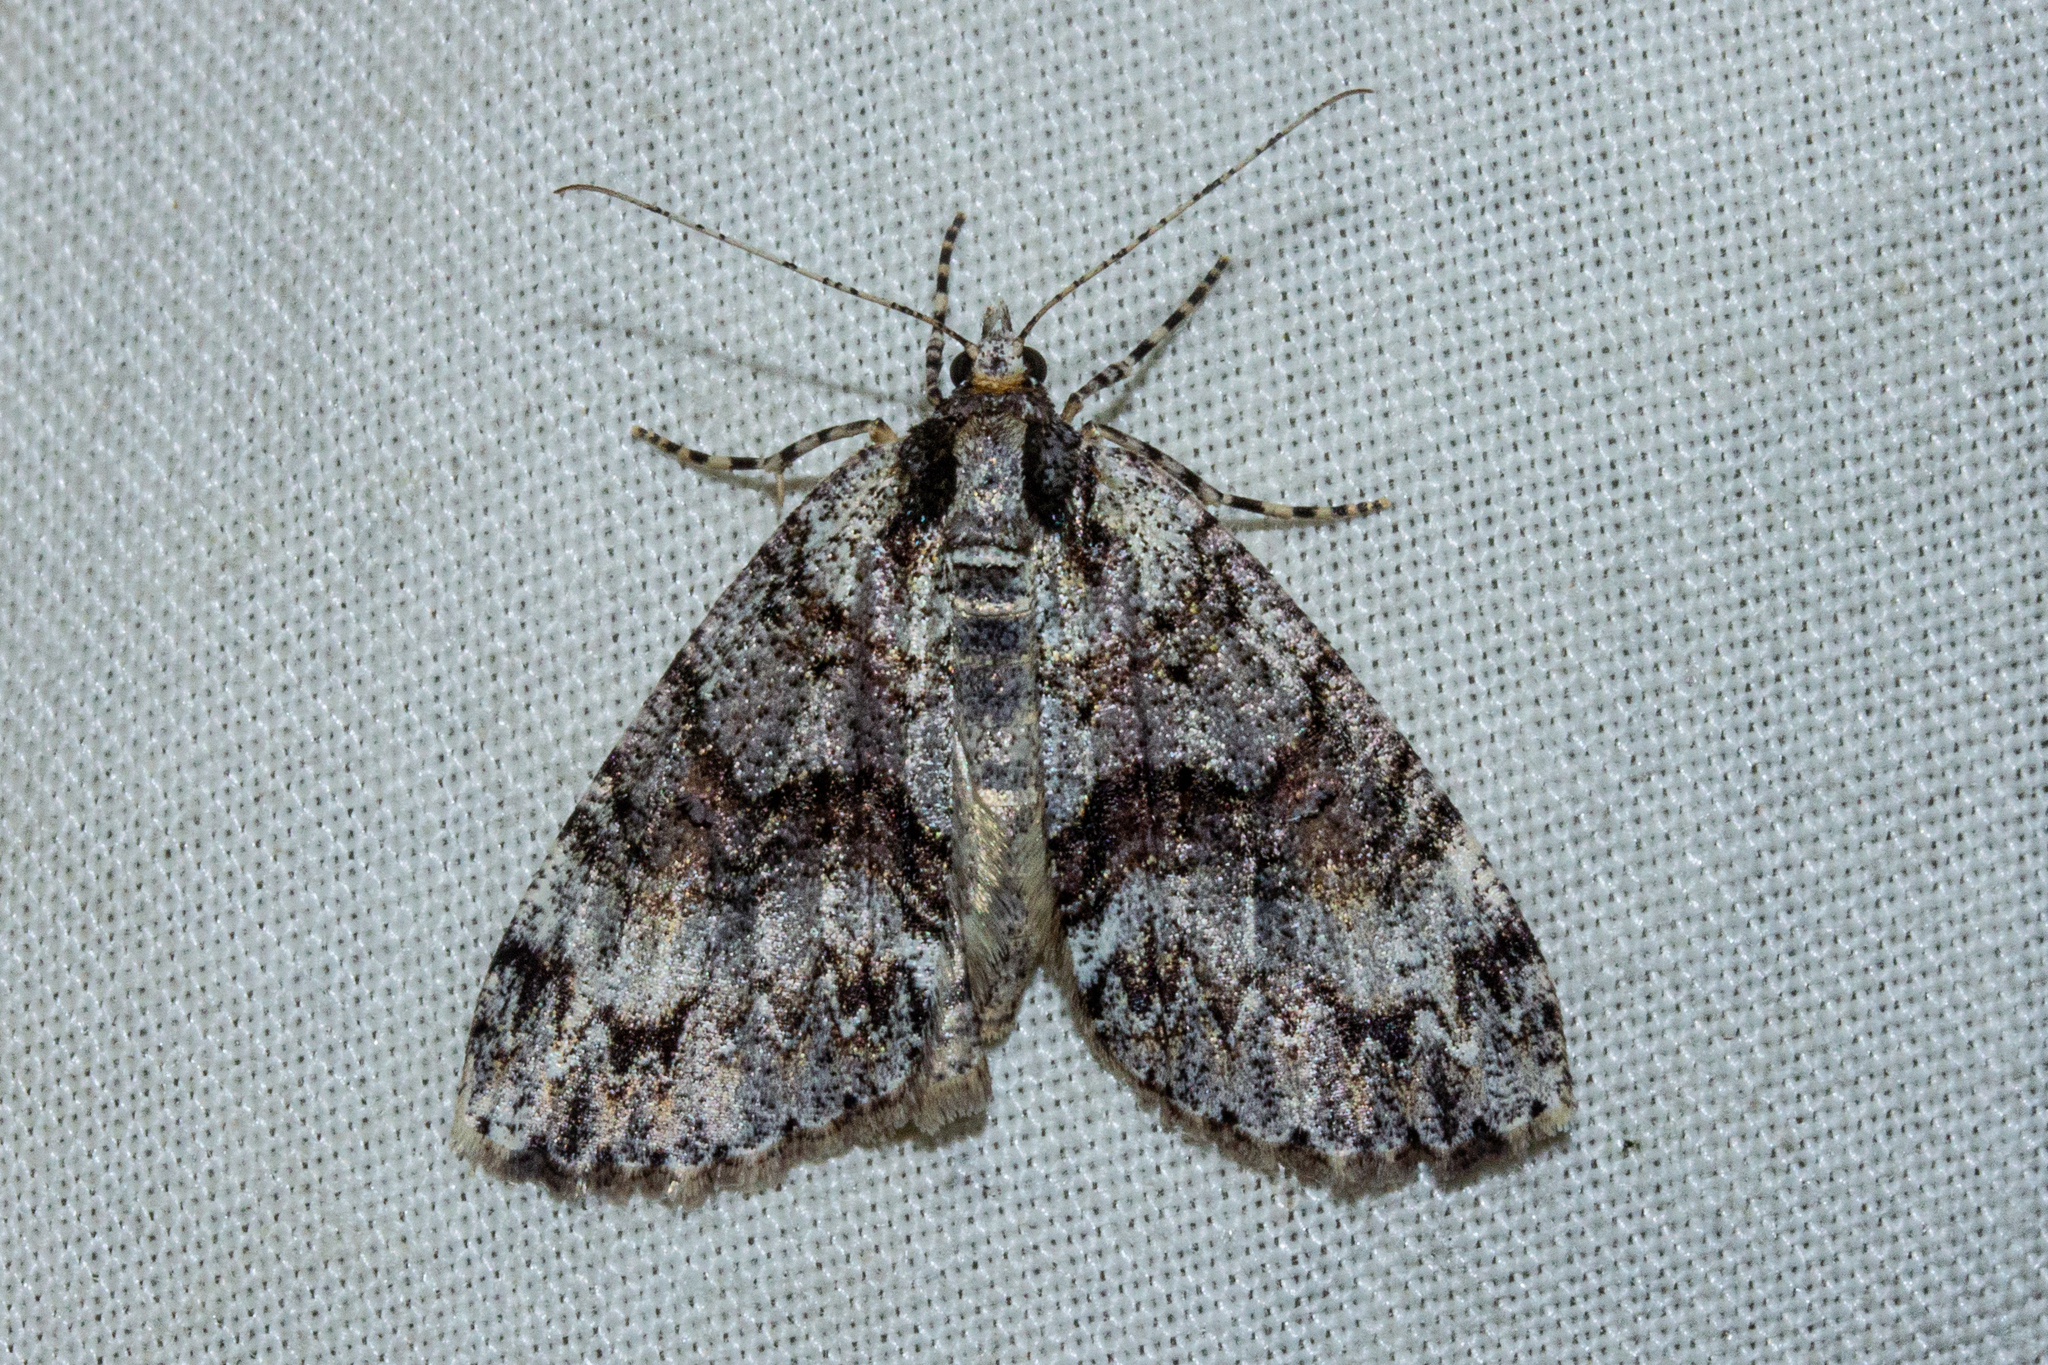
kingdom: Animalia
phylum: Arthropoda
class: Insecta
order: Lepidoptera
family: Geometridae
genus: Pseudocoremia
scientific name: Pseudocoremia suavis
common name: Common forest looper
